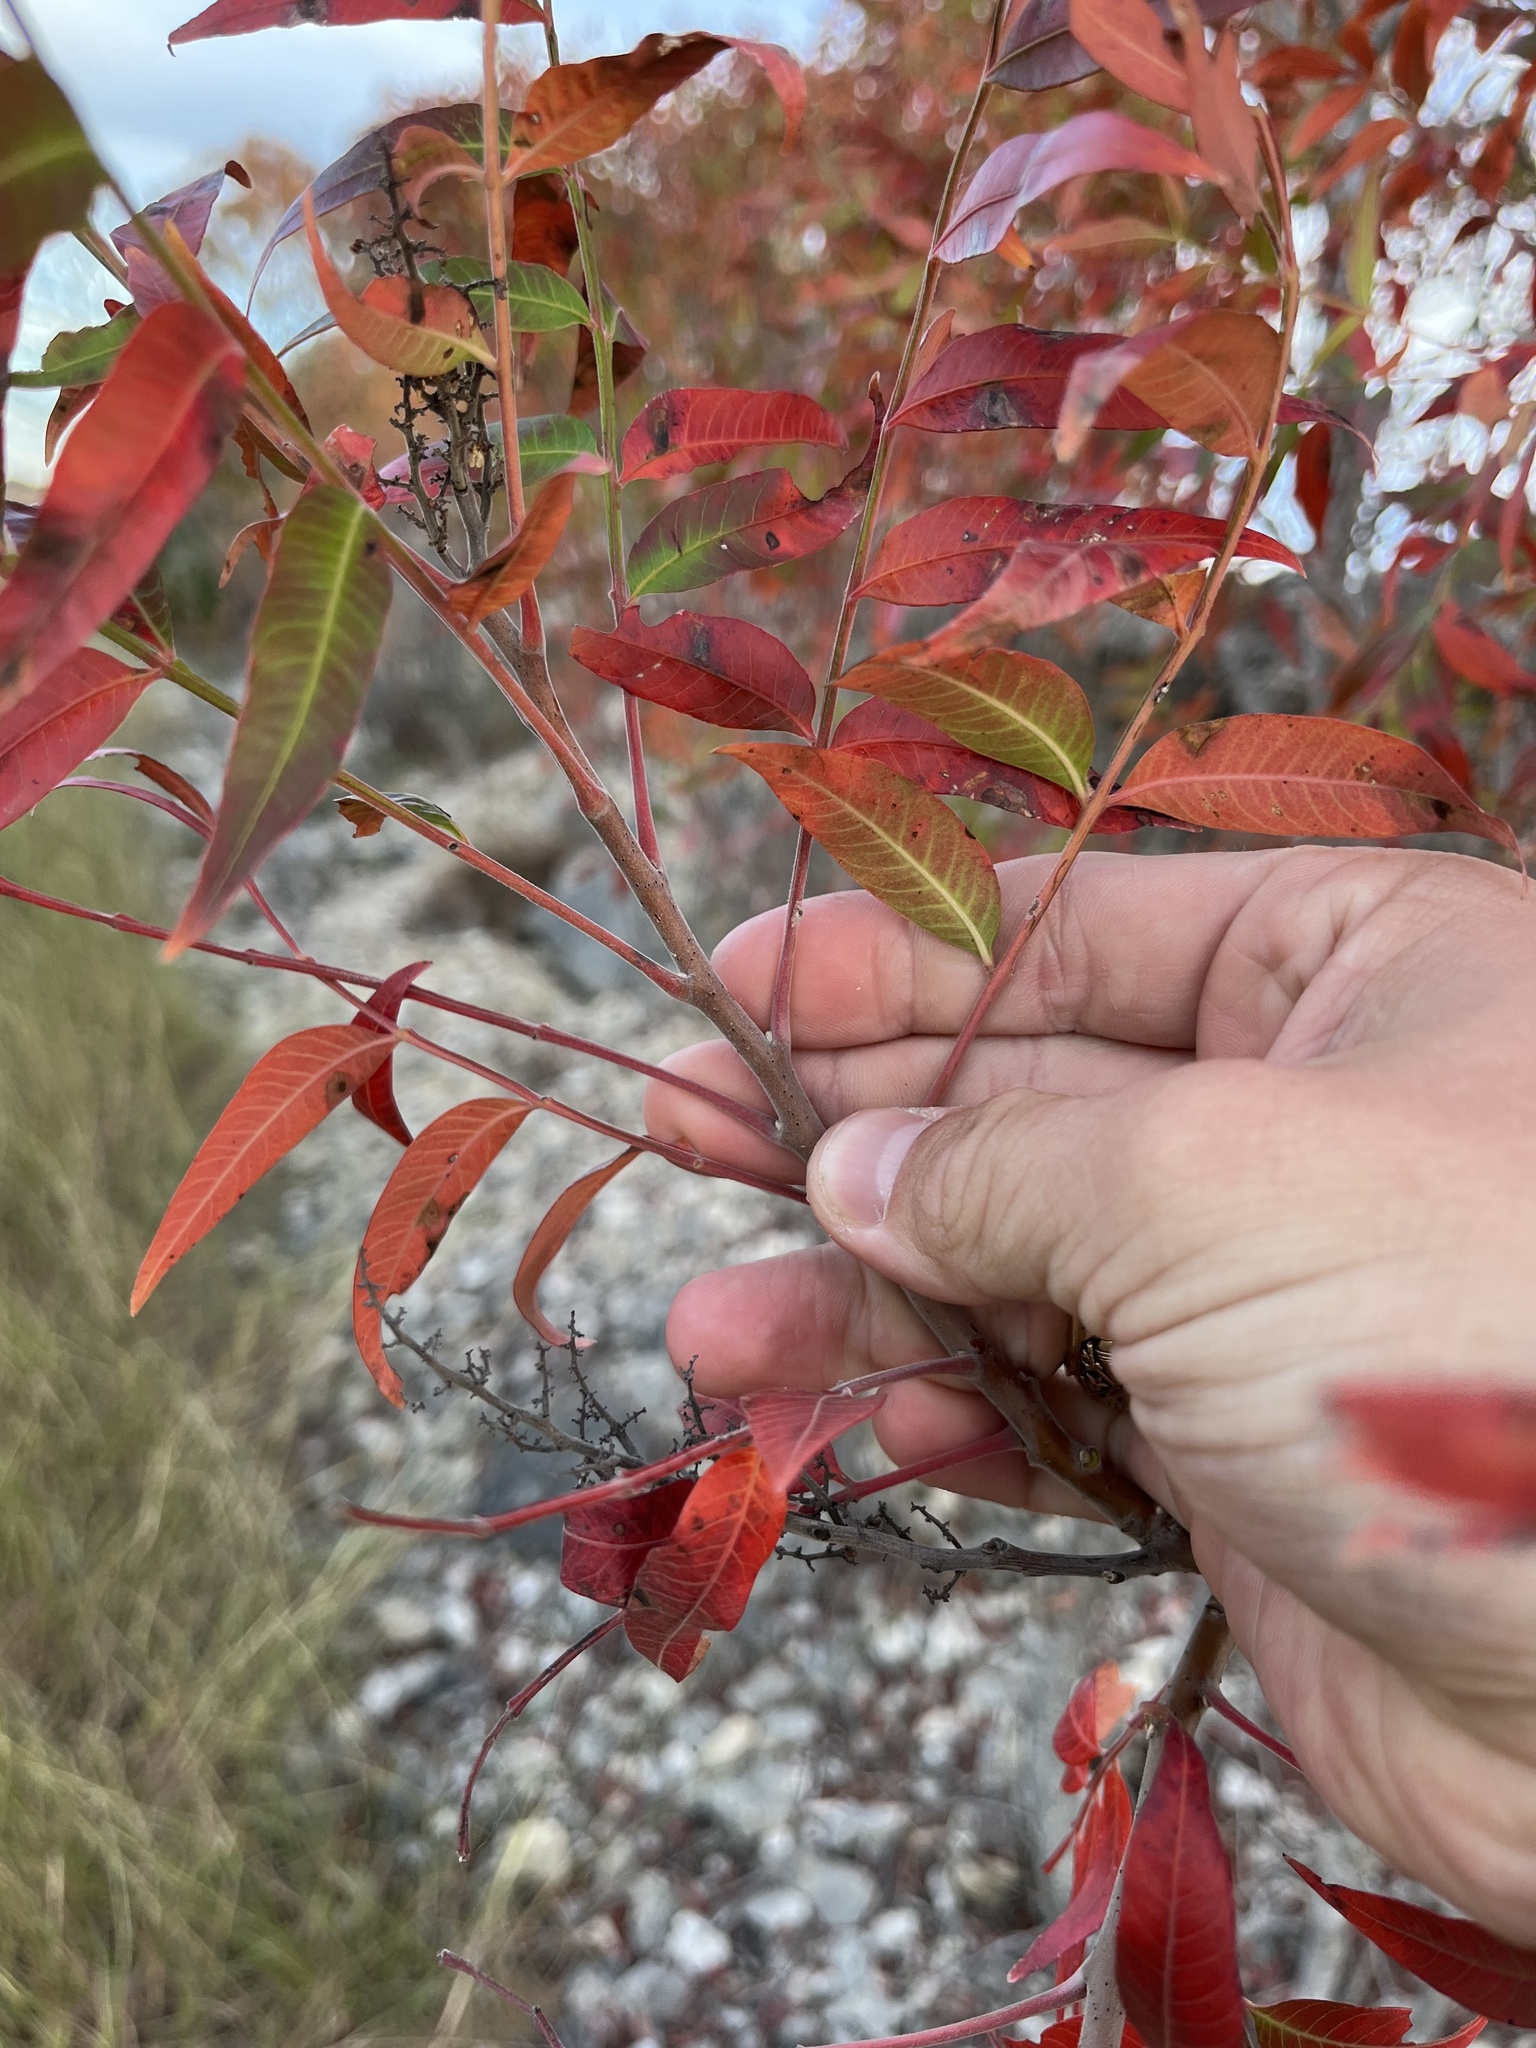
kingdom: Plantae
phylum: Tracheophyta
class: Magnoliopsida
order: Sapindales
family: Anacardiaceae
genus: Rhus
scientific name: Rhus lanceolata
